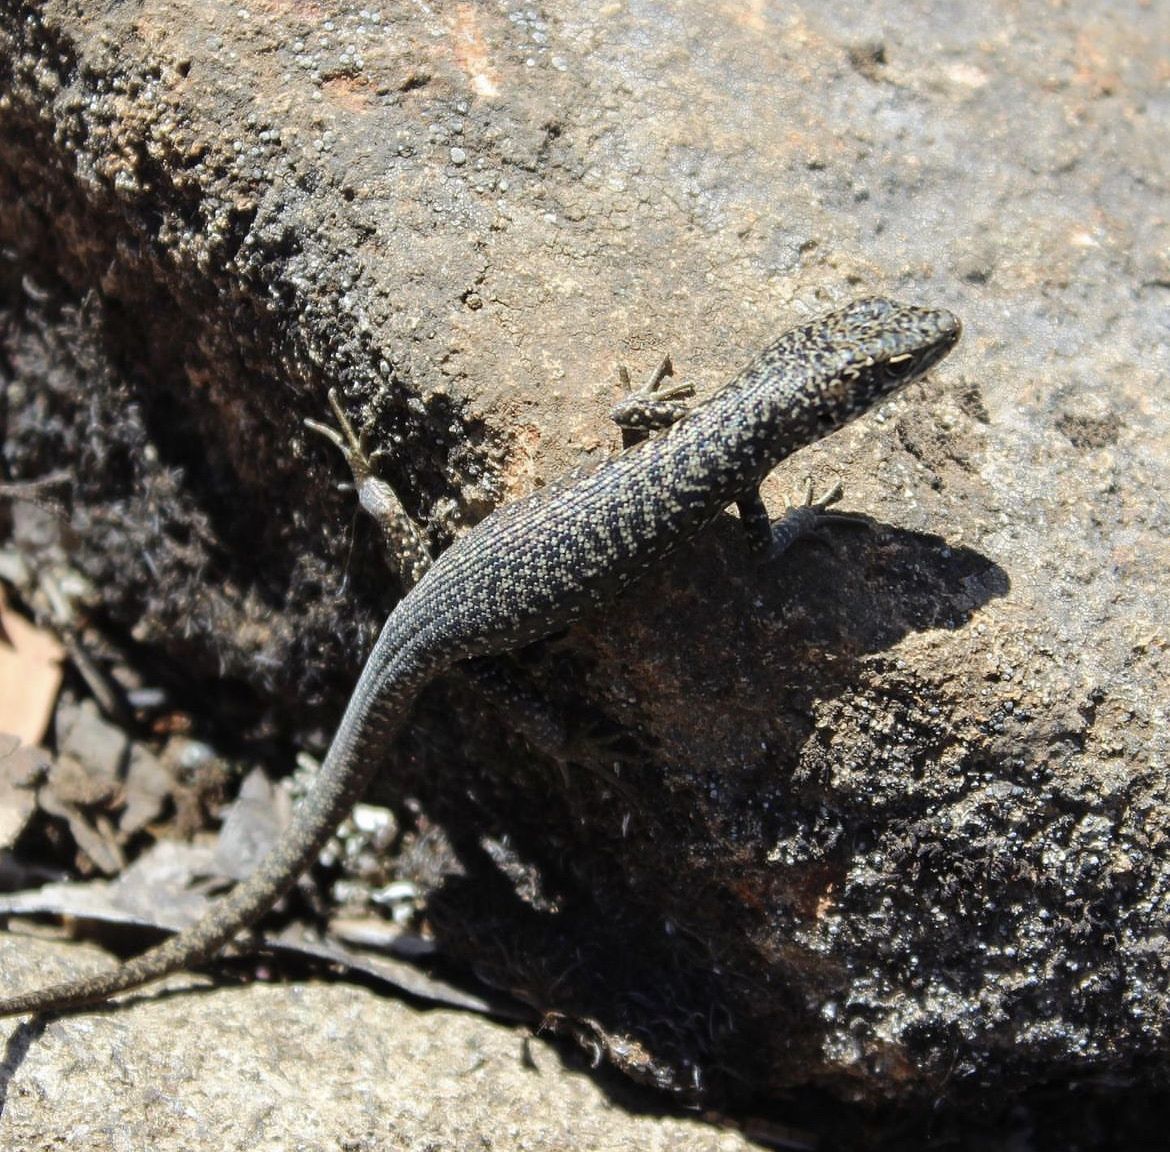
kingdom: Animalia
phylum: Chordata
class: Squamata
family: Scincidae
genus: Carinascincus
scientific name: Carinascincus ocellatus
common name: Ocellated cool-skink
